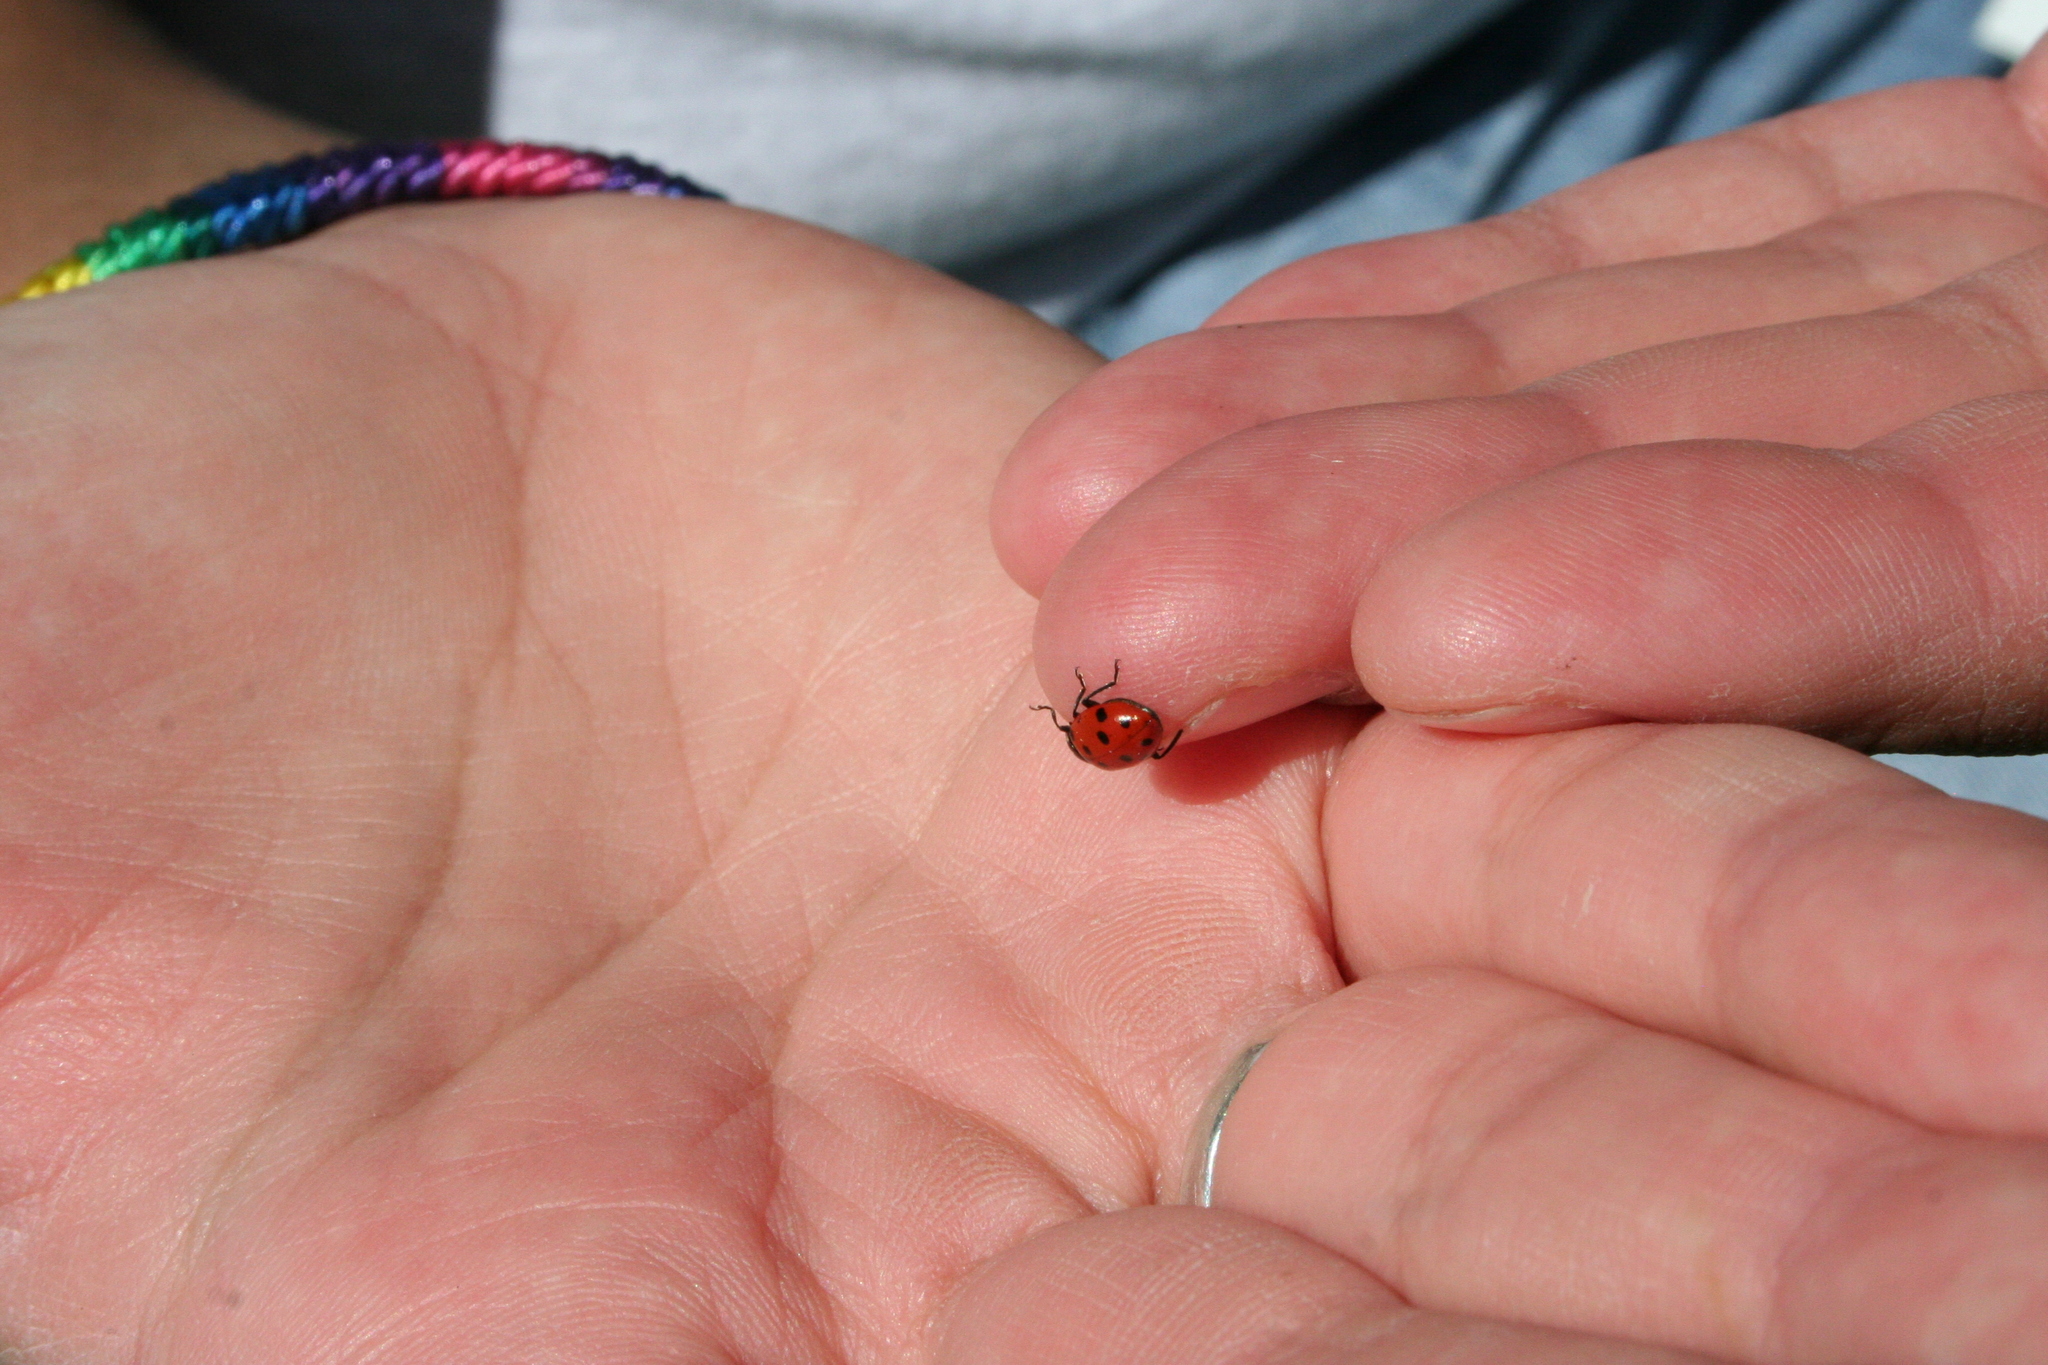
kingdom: Animalia
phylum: Arthropoda
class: Insecta
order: Coleoptera
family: Coccinellidae
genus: Hippodamia
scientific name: Hippodamia convergens
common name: Convergent lady beetle
